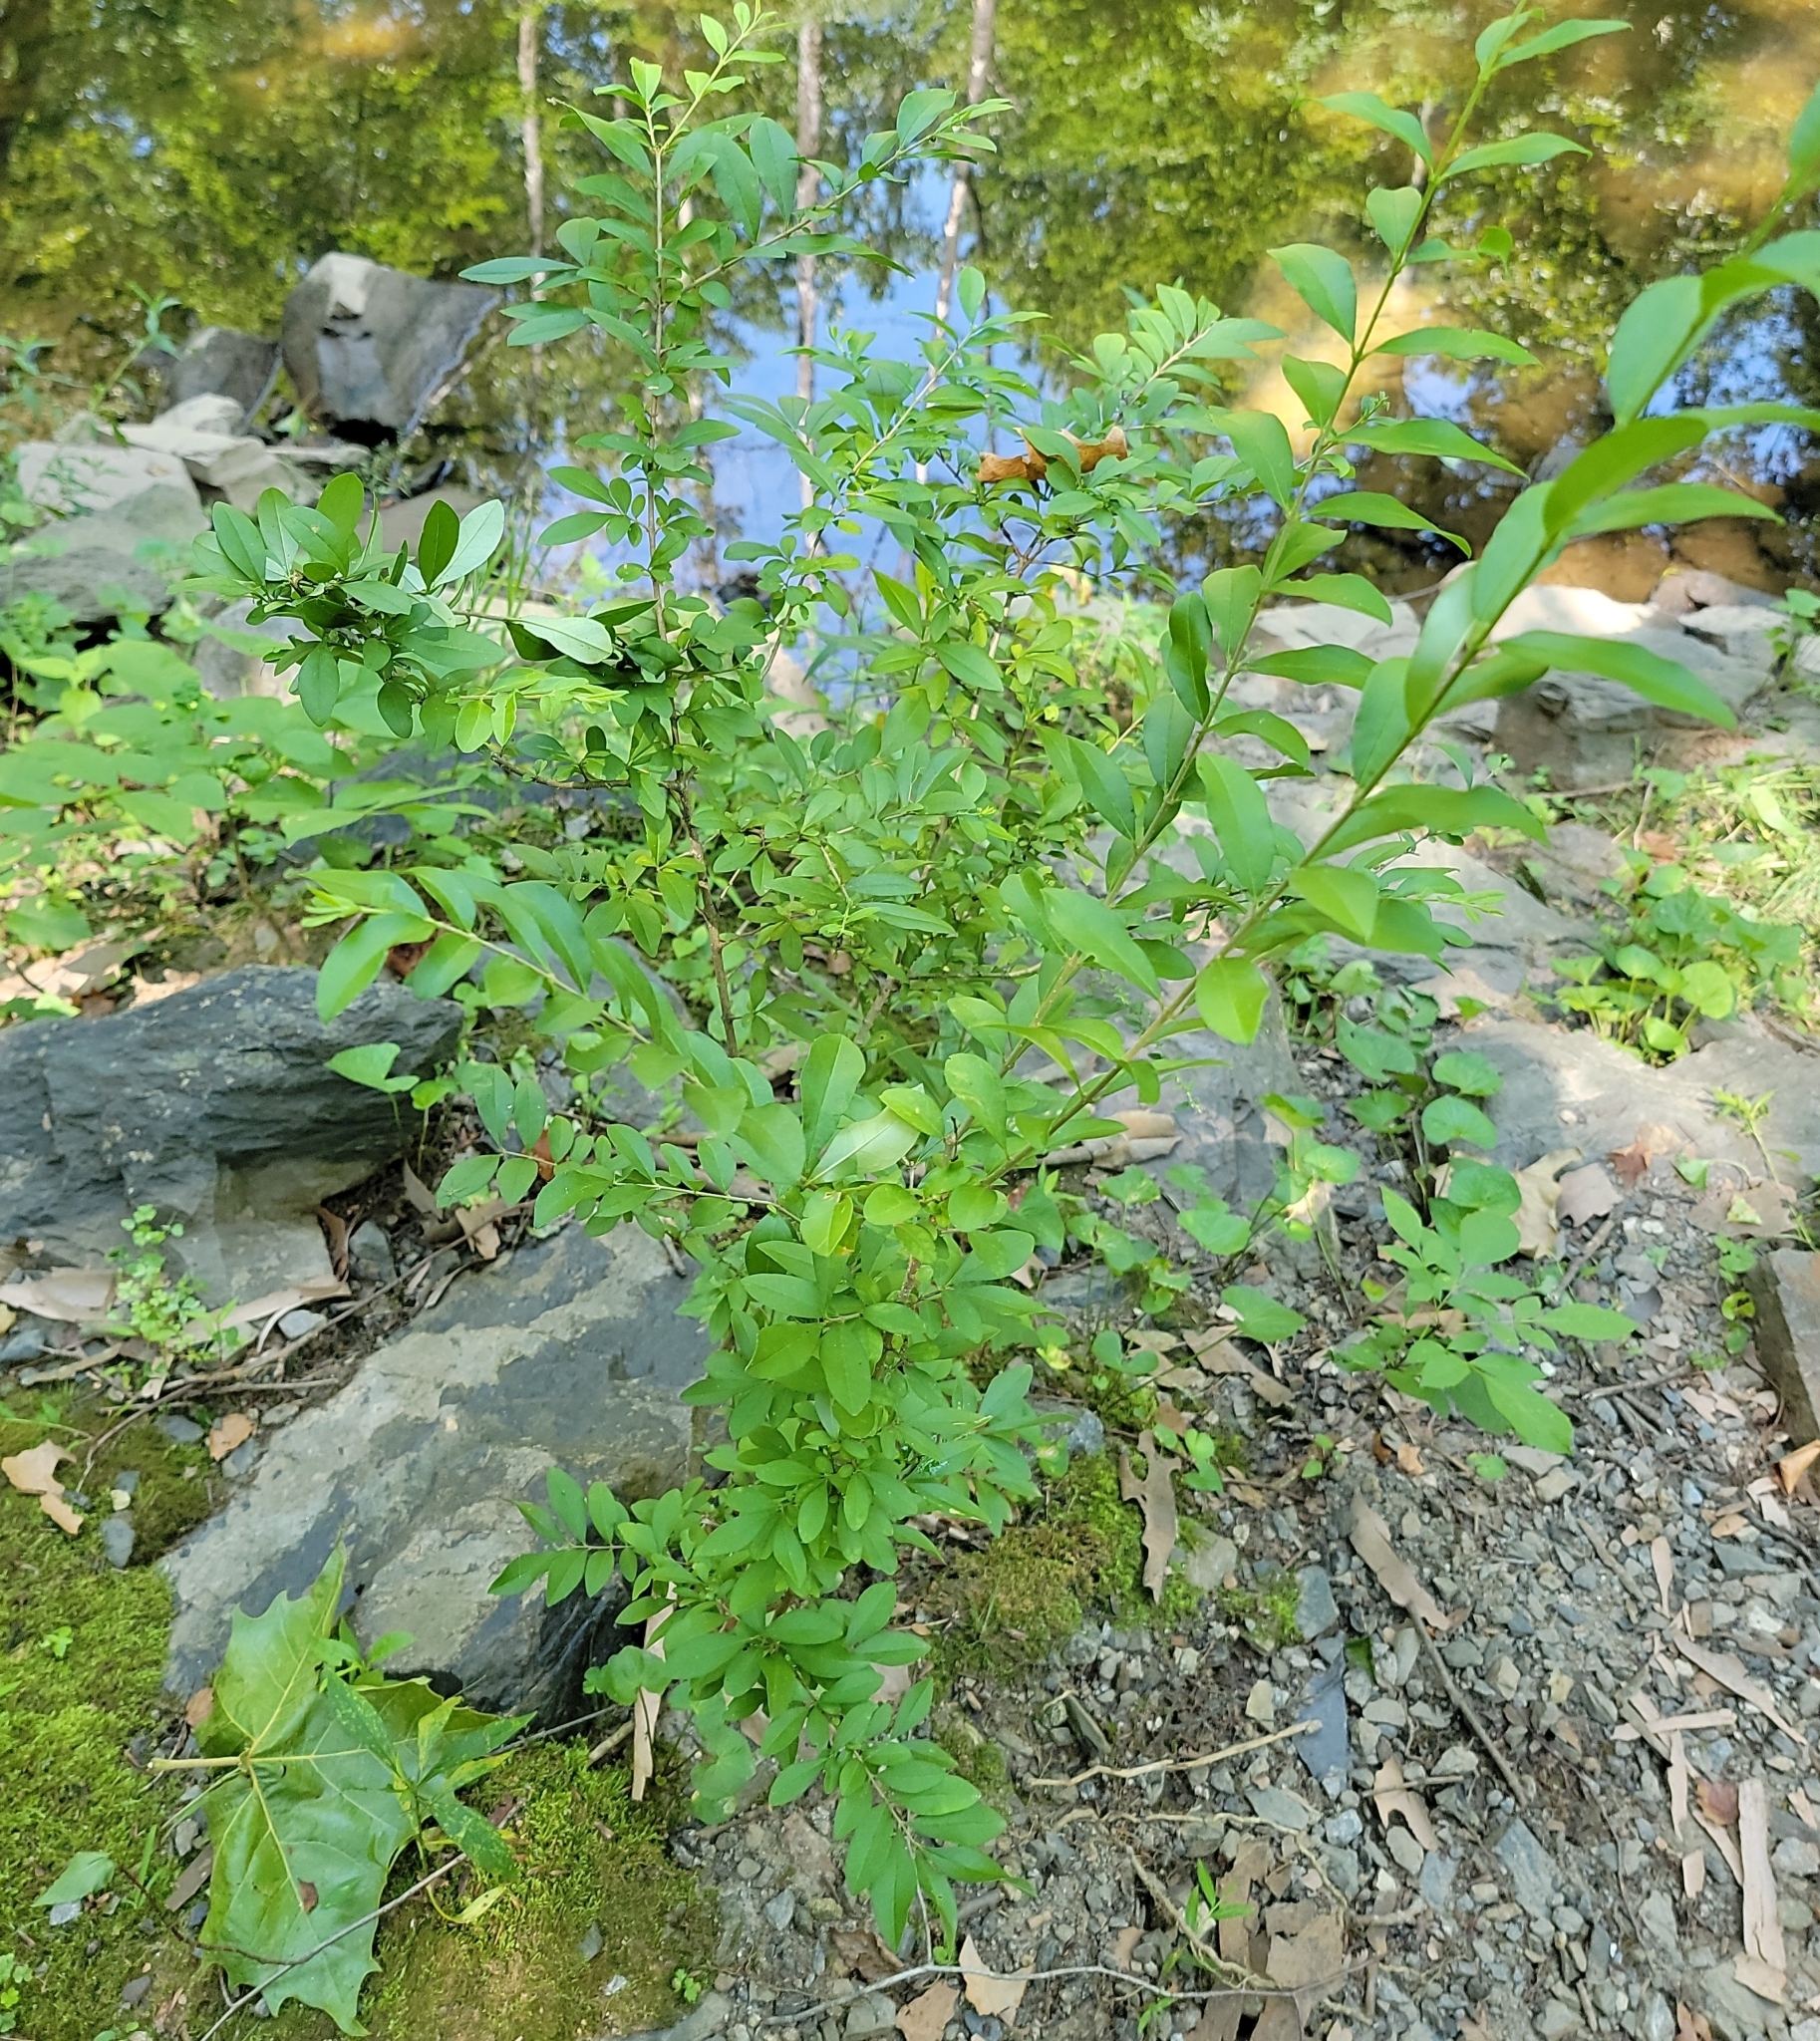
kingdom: Plantae
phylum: Tracheophyta
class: Magnoliopsida
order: Lamiales
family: Oleaceae
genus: Ligustrum
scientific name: Ligustrum obtusifolium
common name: Border privet
